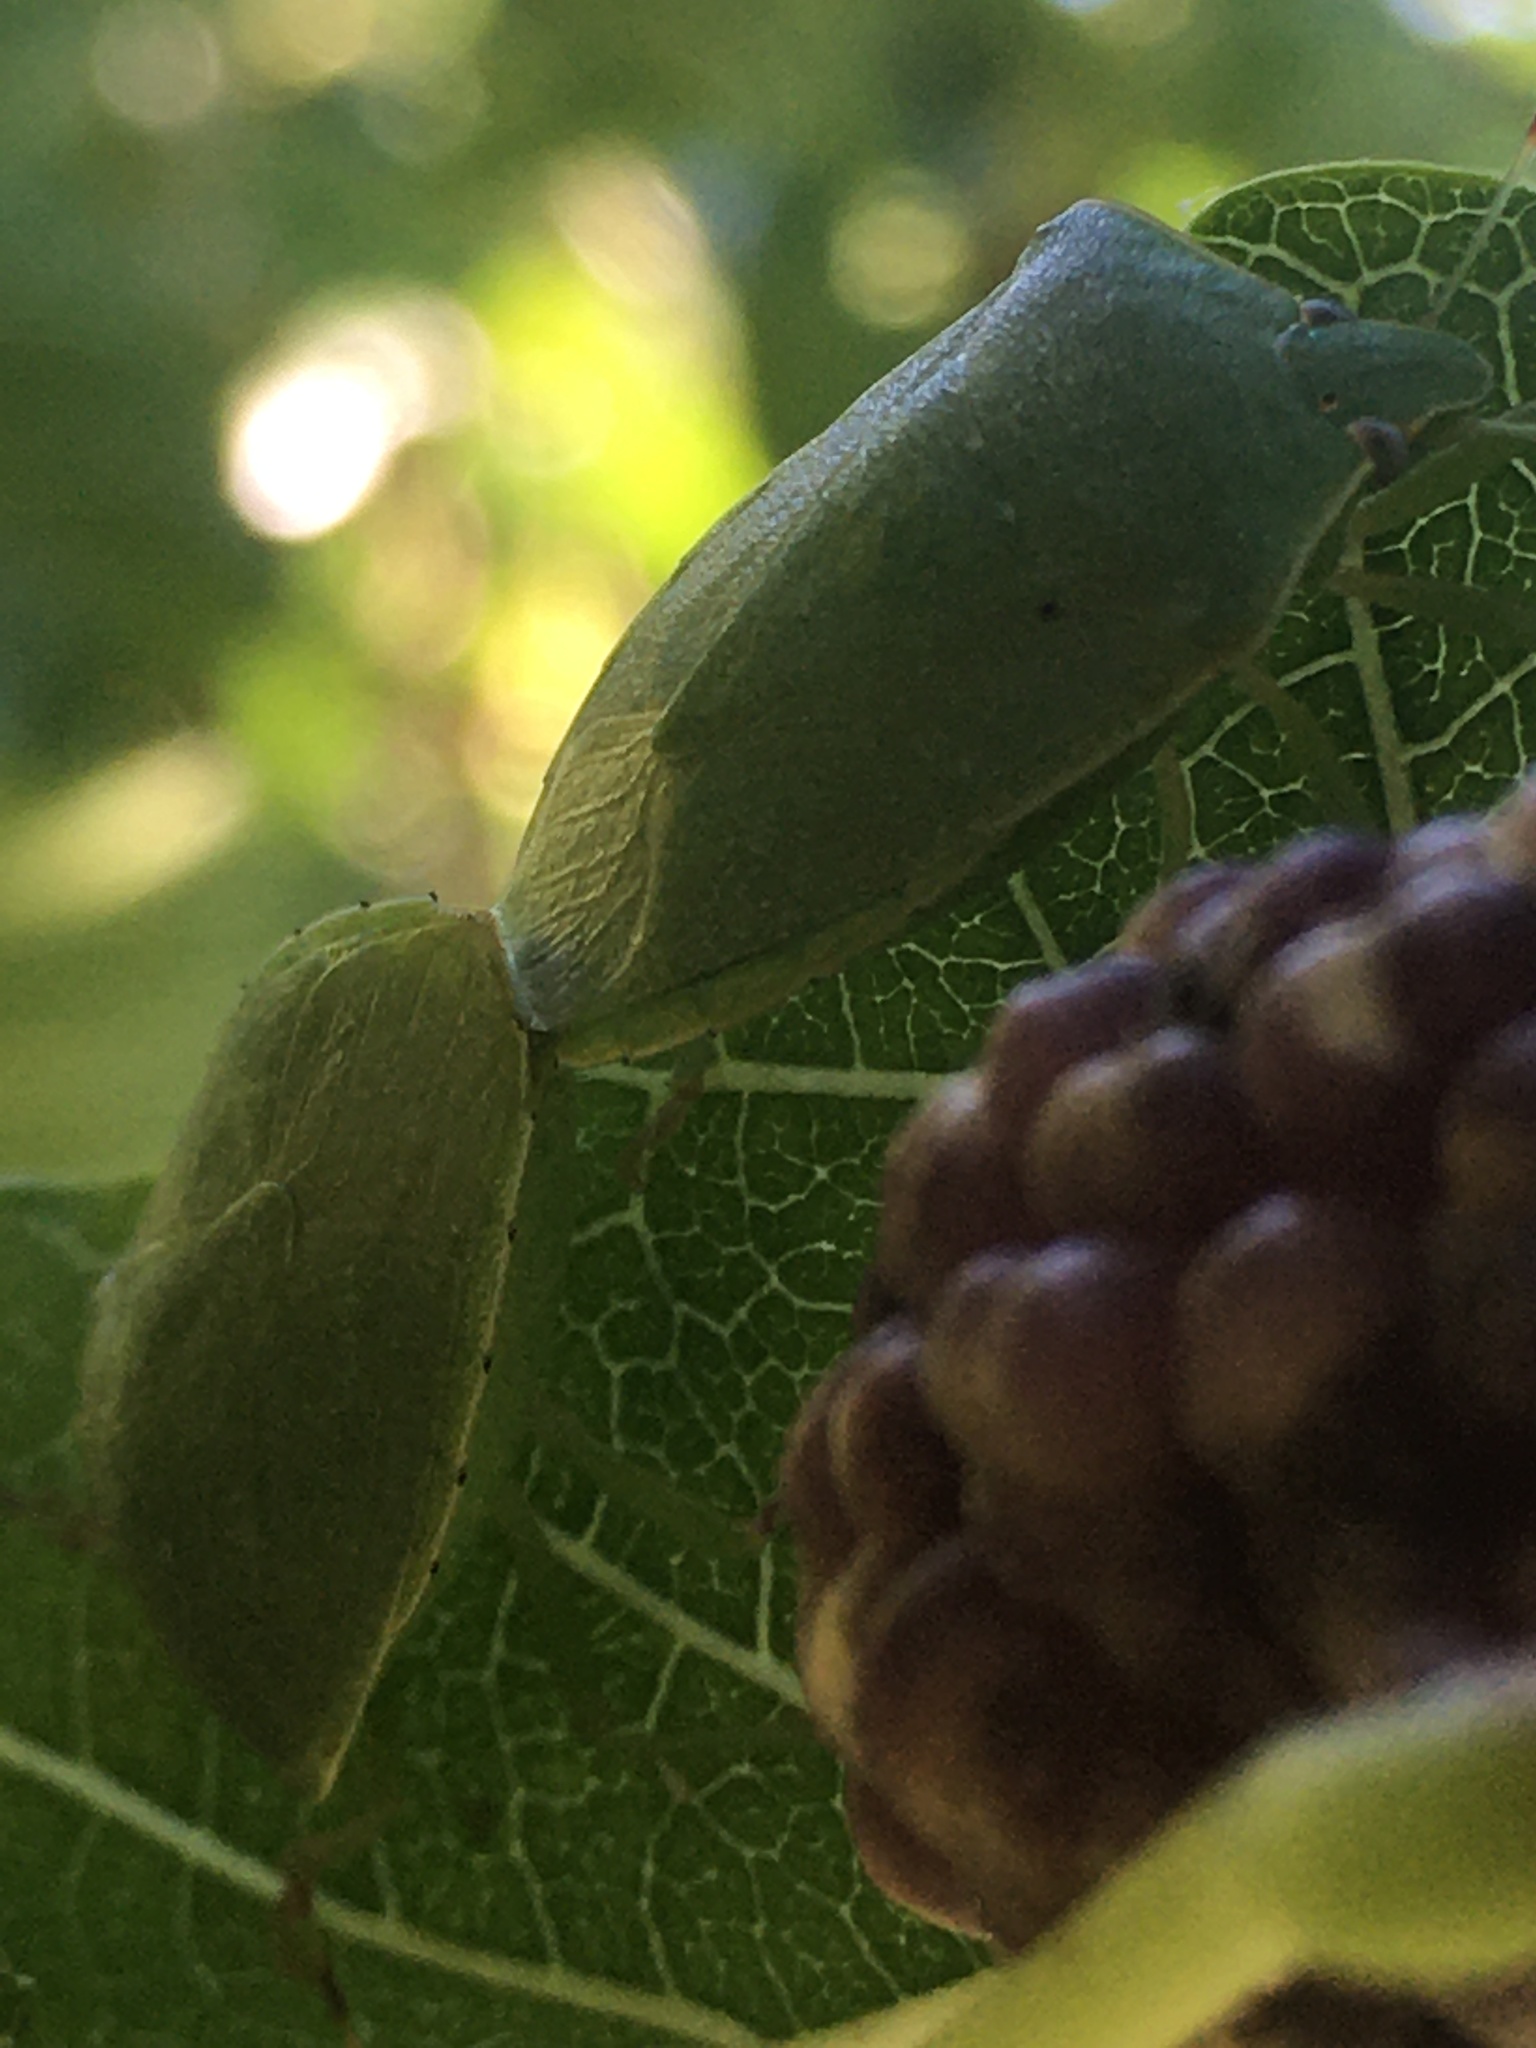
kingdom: Animalia
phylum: Arthropoda
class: Insecta
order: Hemiptera
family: Pentatomidae
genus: Nezara
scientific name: Nezara viridula
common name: Southern green stink bug
